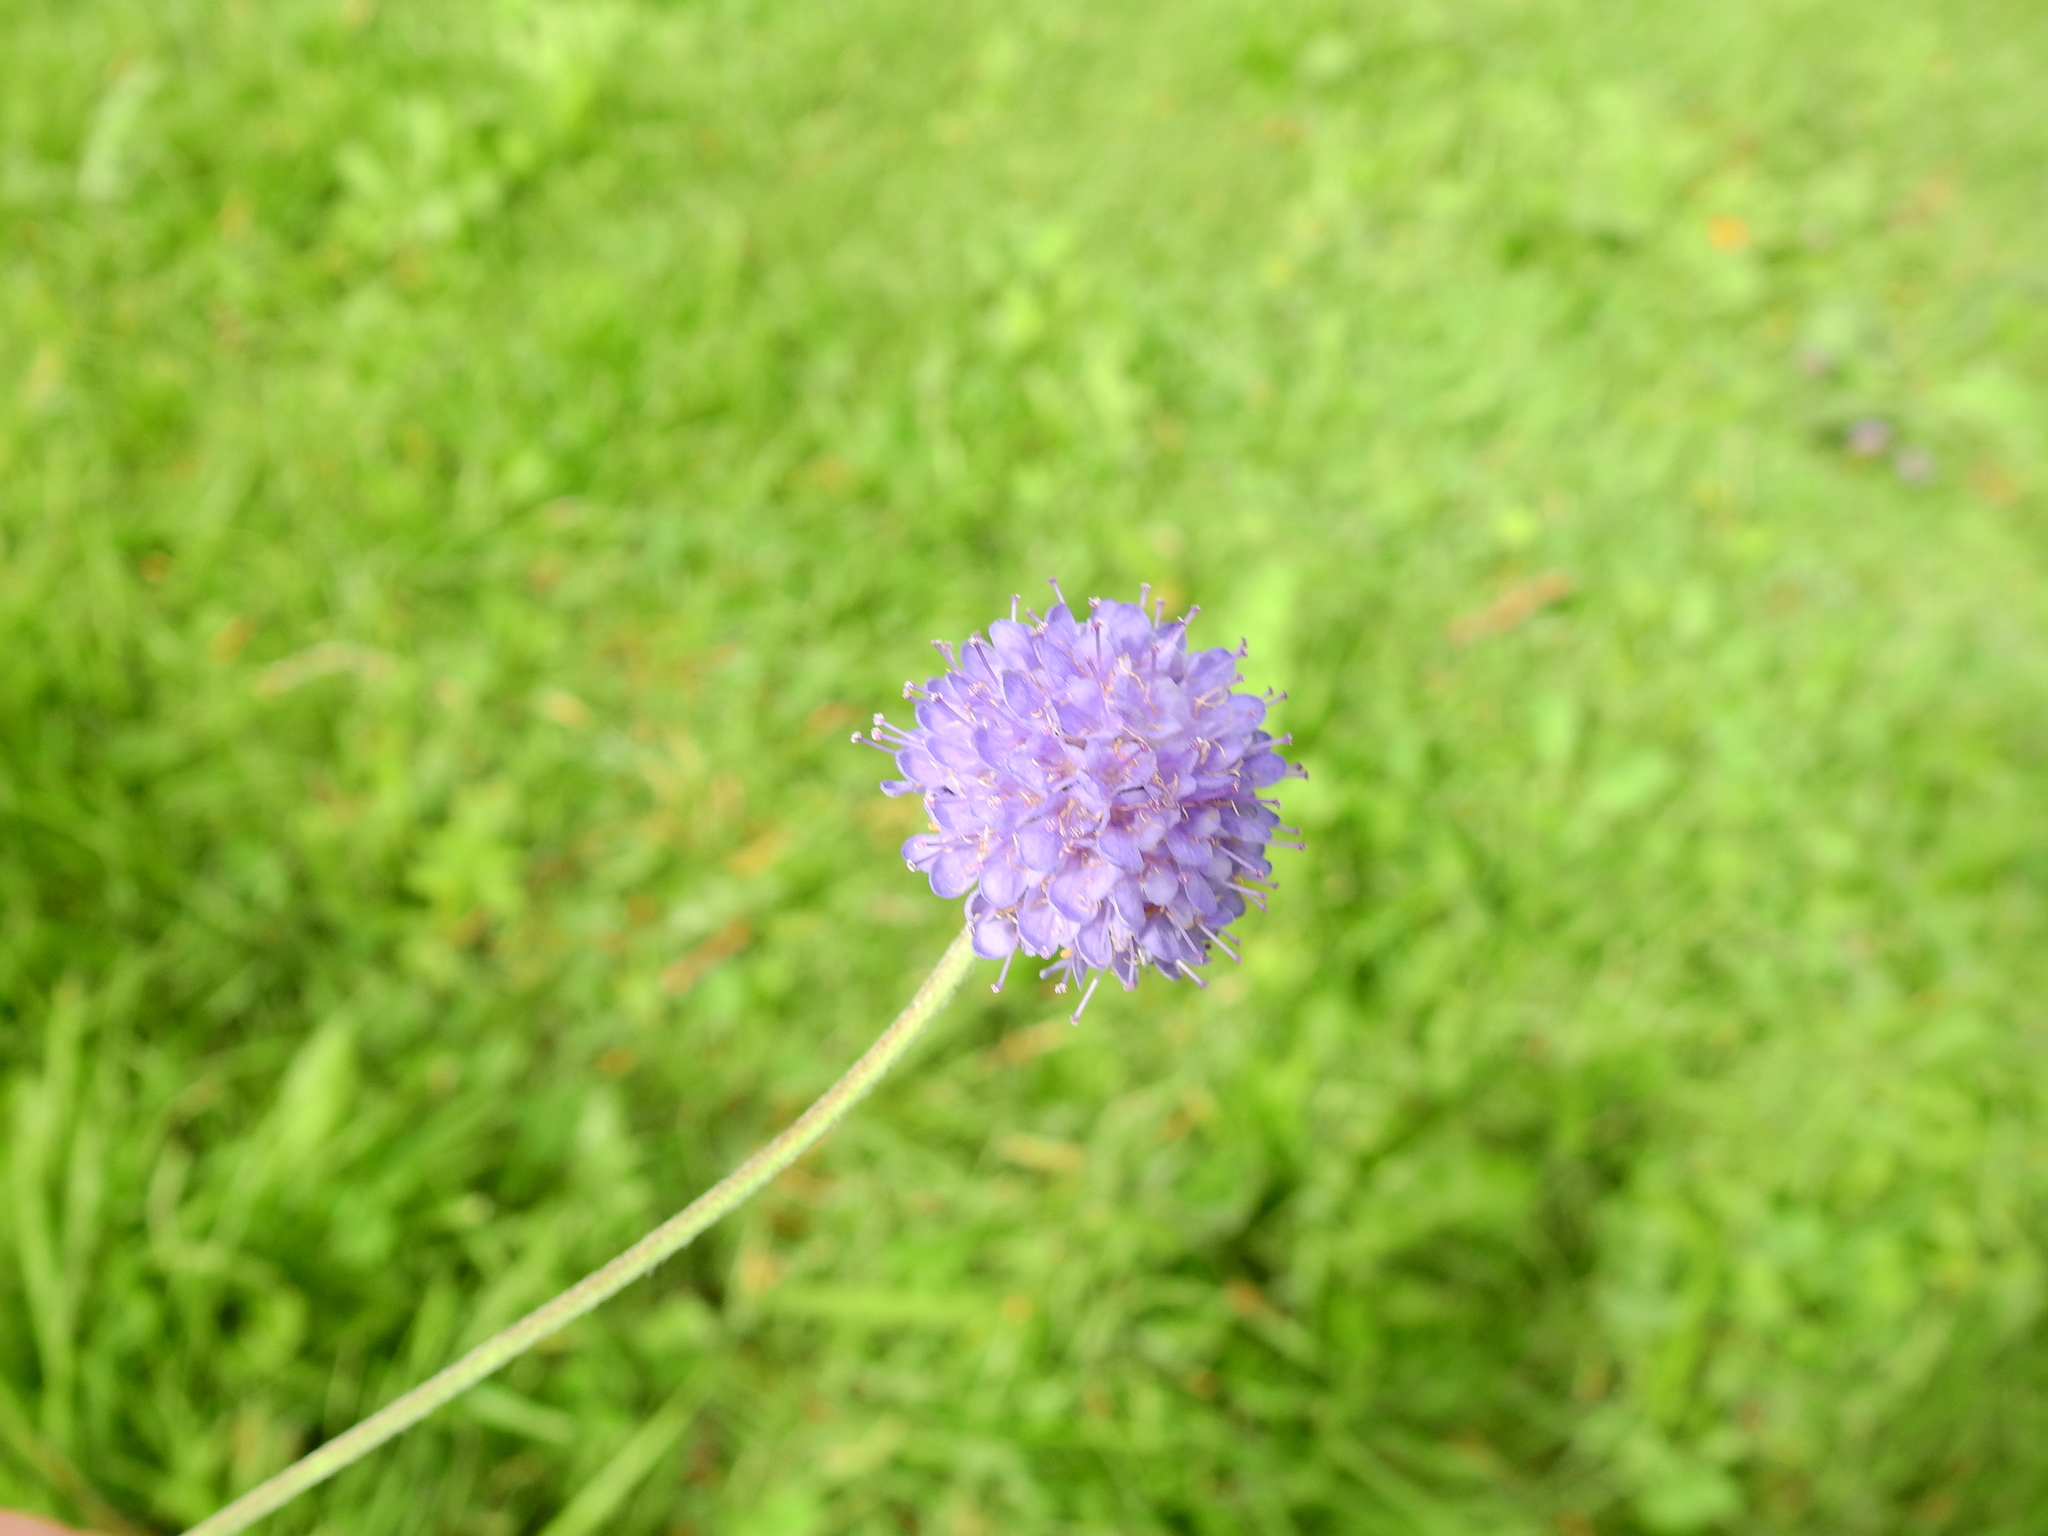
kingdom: Plantae
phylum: Tracheophyta
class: Magnoliopsida
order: Dipsacales
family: Caprifoliaceae
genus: Succisa
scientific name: Succisa pratensis
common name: Devil's-bit
